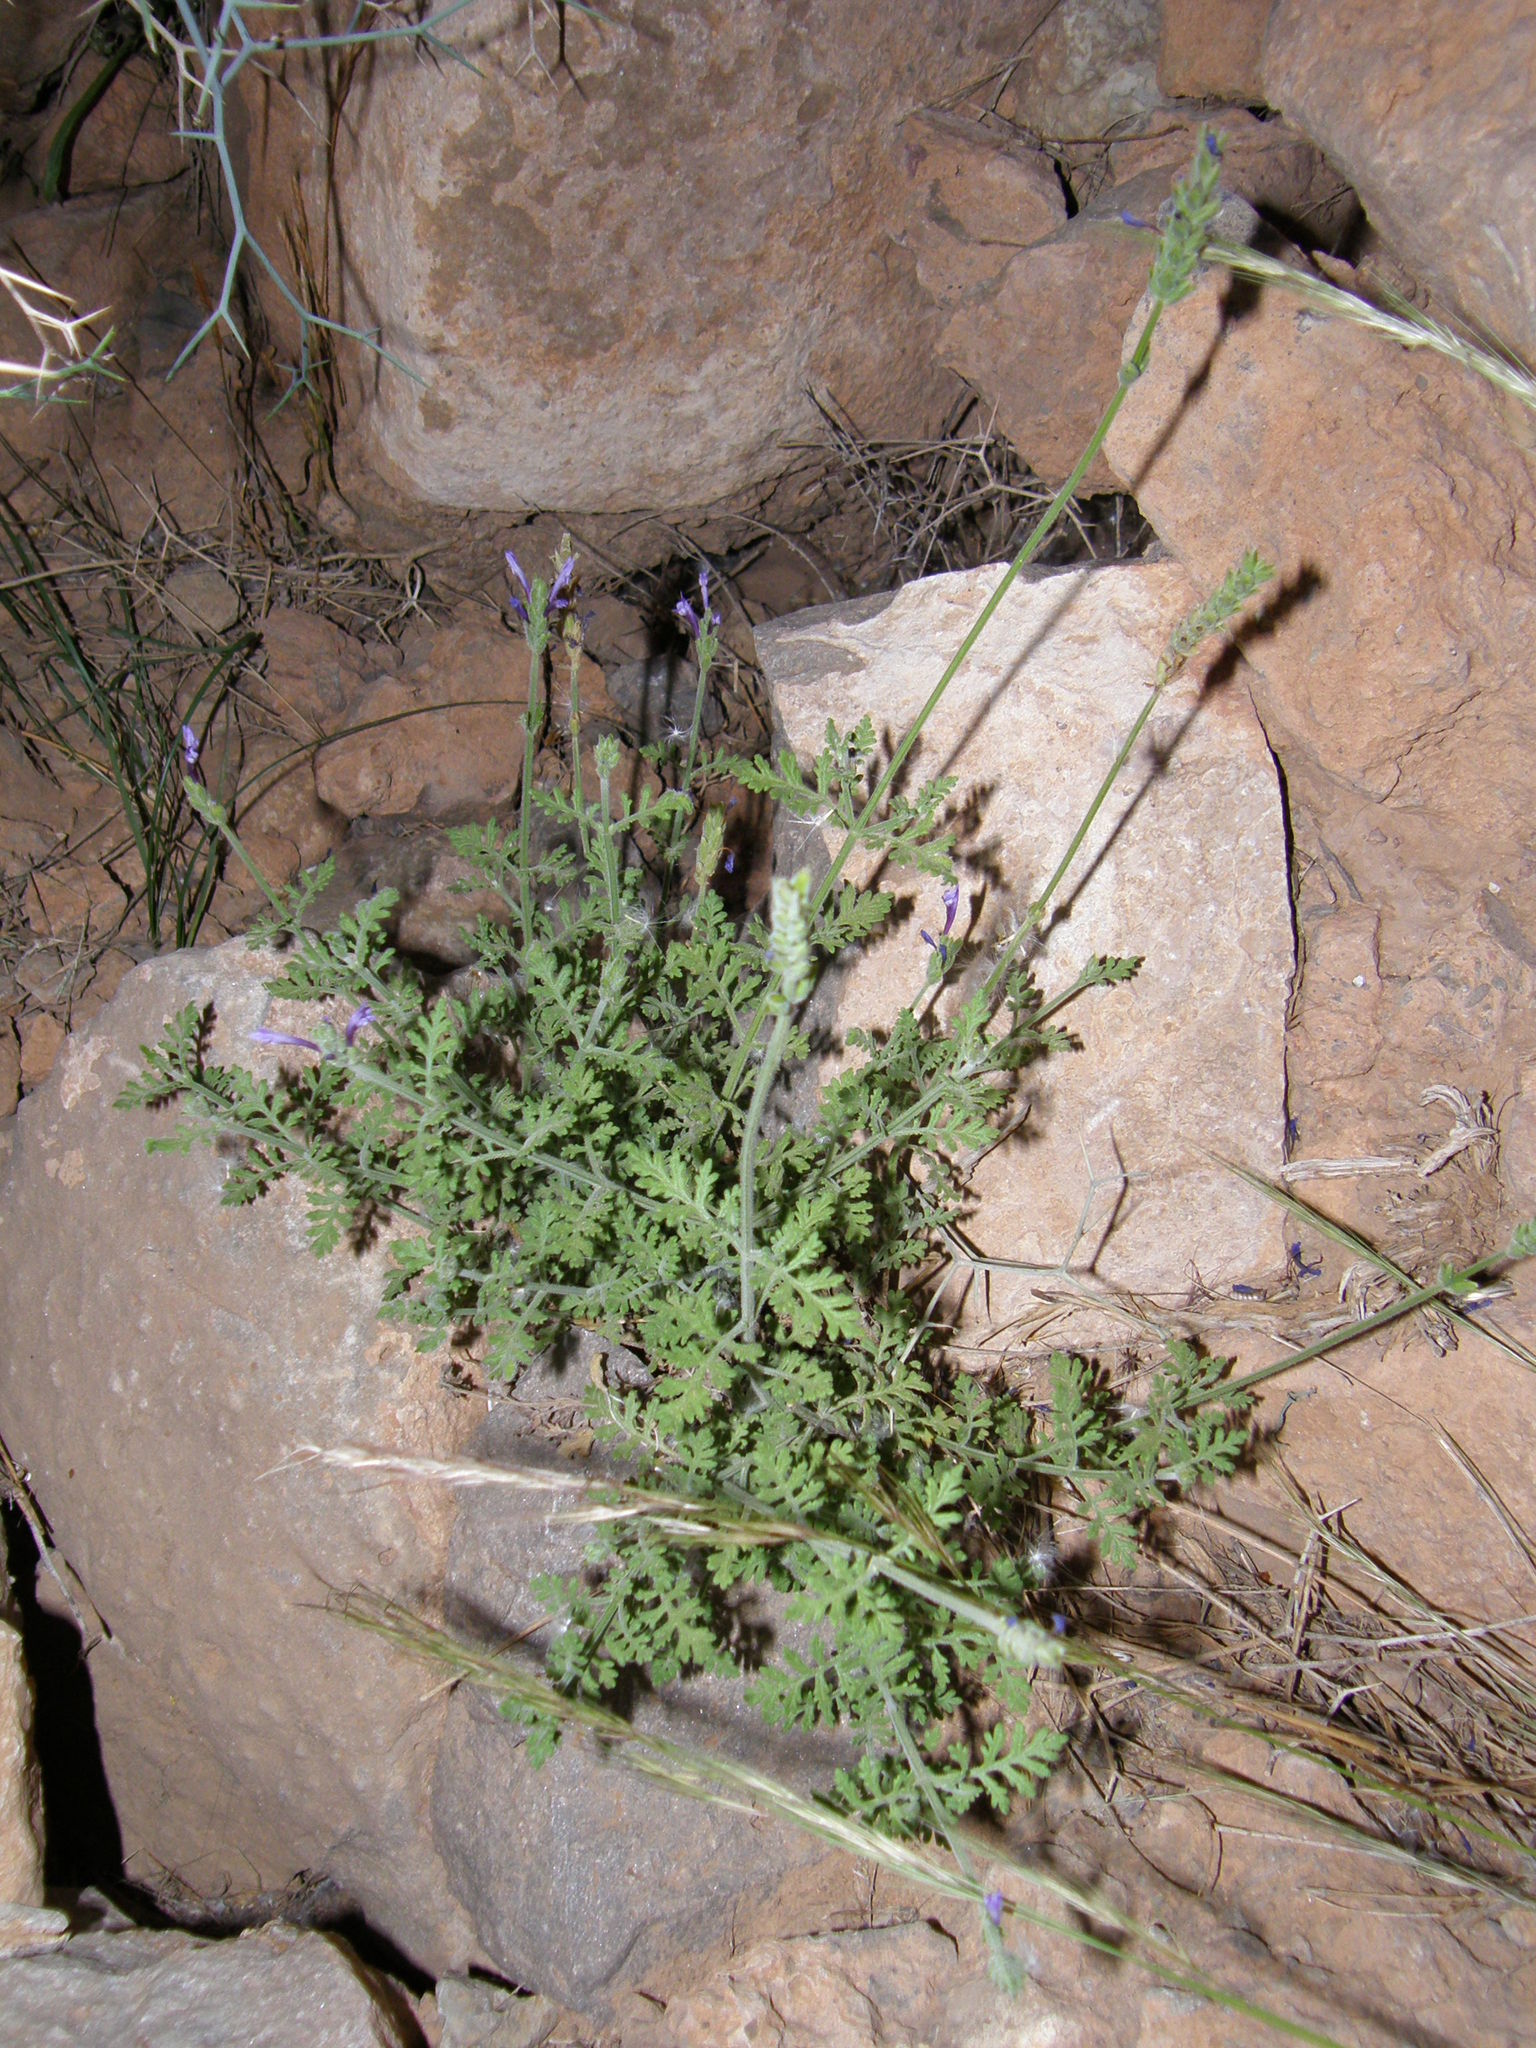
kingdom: Plantae
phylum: Tracheophyta
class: Magnoliopsida
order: Lamiales
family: Lamiaceae
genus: Lavandula
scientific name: Lavandula antineae
